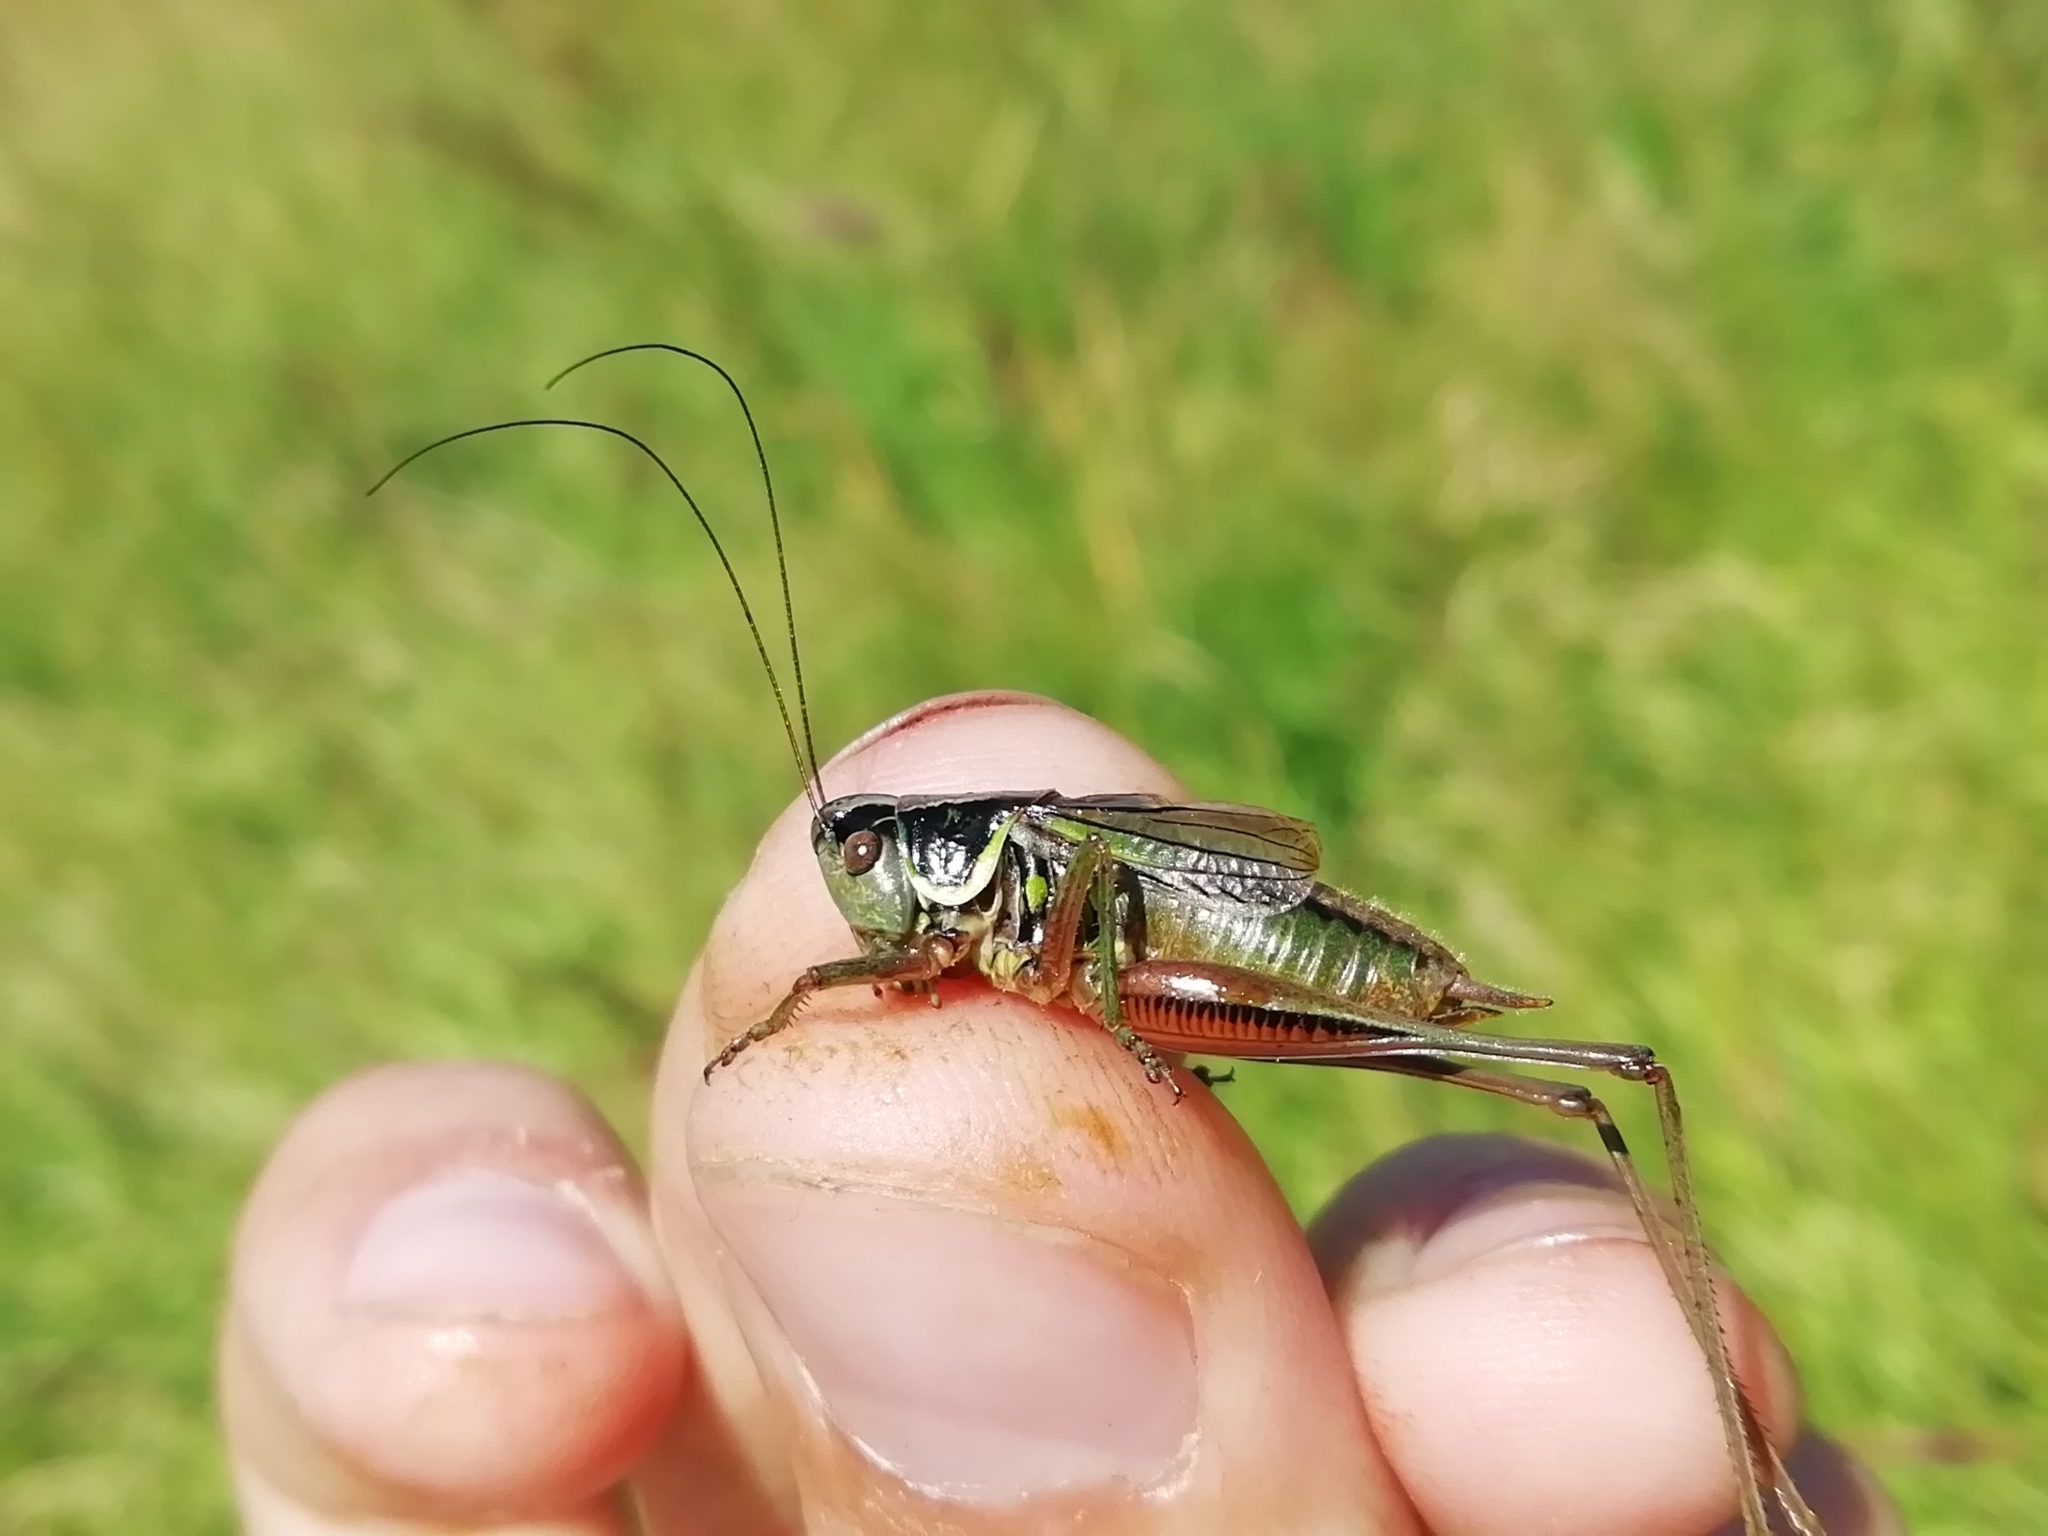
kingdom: Animalia
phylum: Arthropoda
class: Insecta
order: Orthoptera
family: Tettigoniidae
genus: Roeseliana
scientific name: Roeseliana roeselii
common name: Roesel's bush cricket
